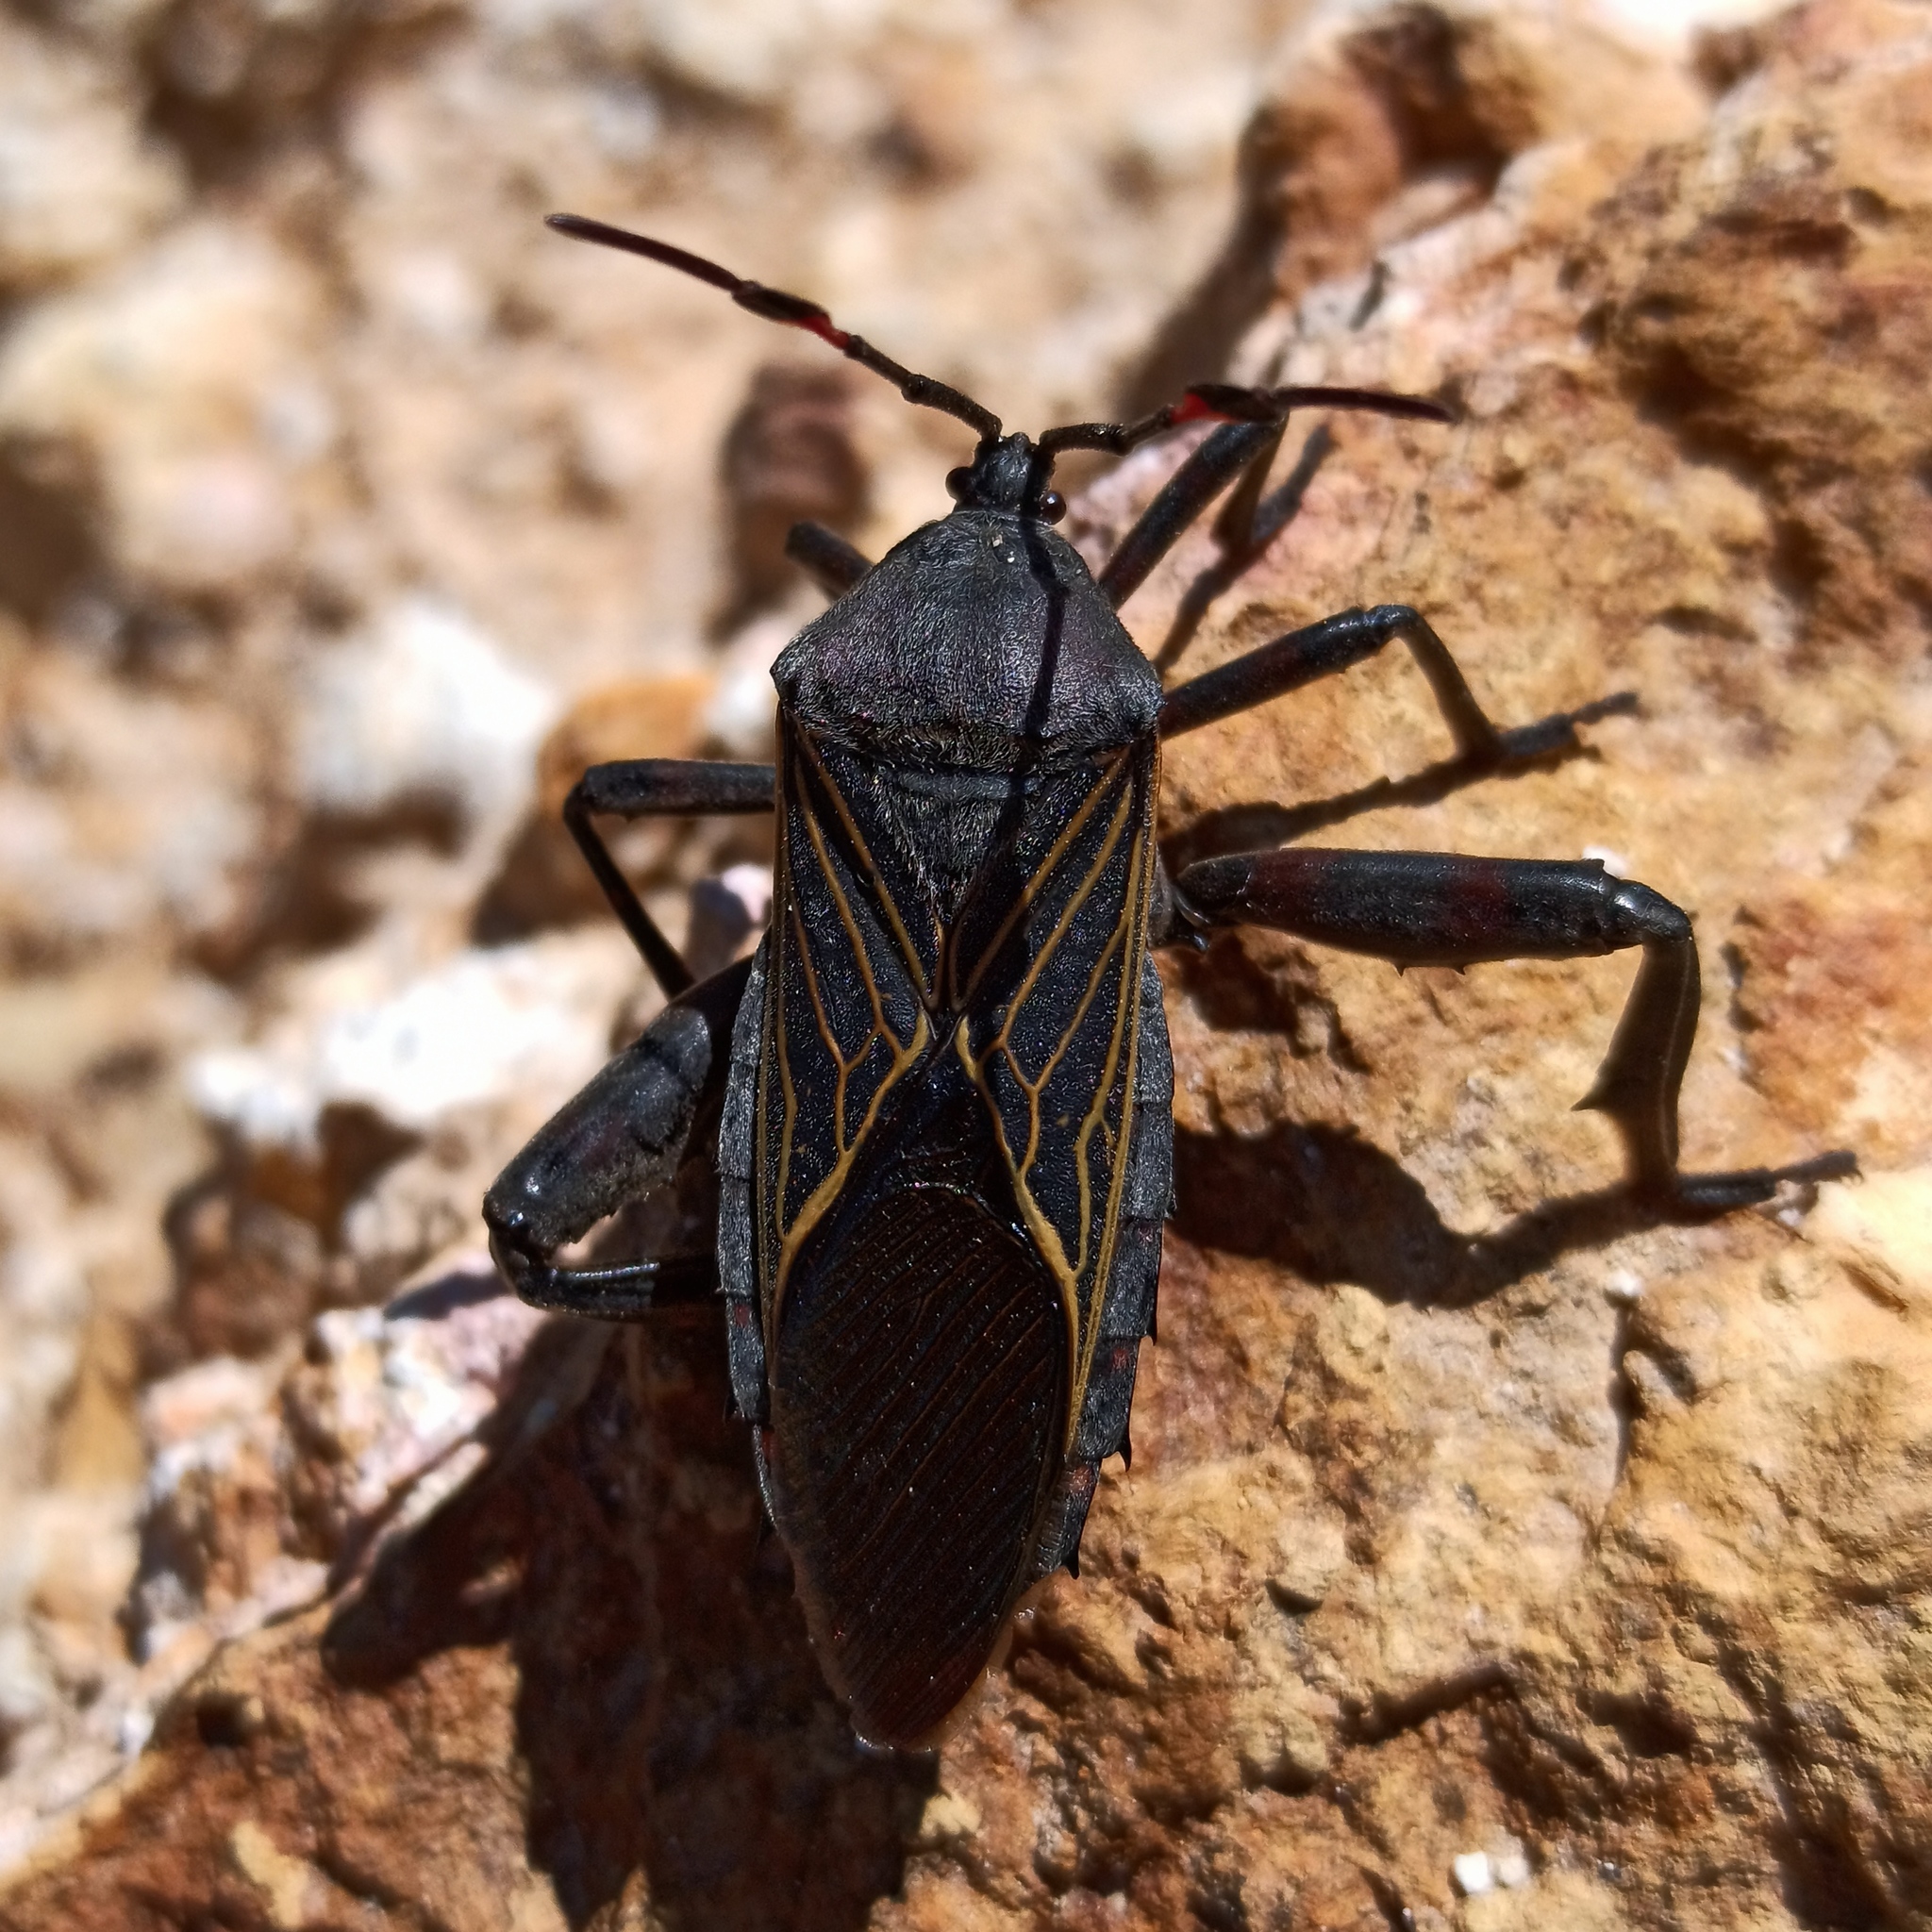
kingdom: Animalia
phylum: Arthropoda
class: Insecta
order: Hemiptera
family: Coreidae
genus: Thasus
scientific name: Thasus
